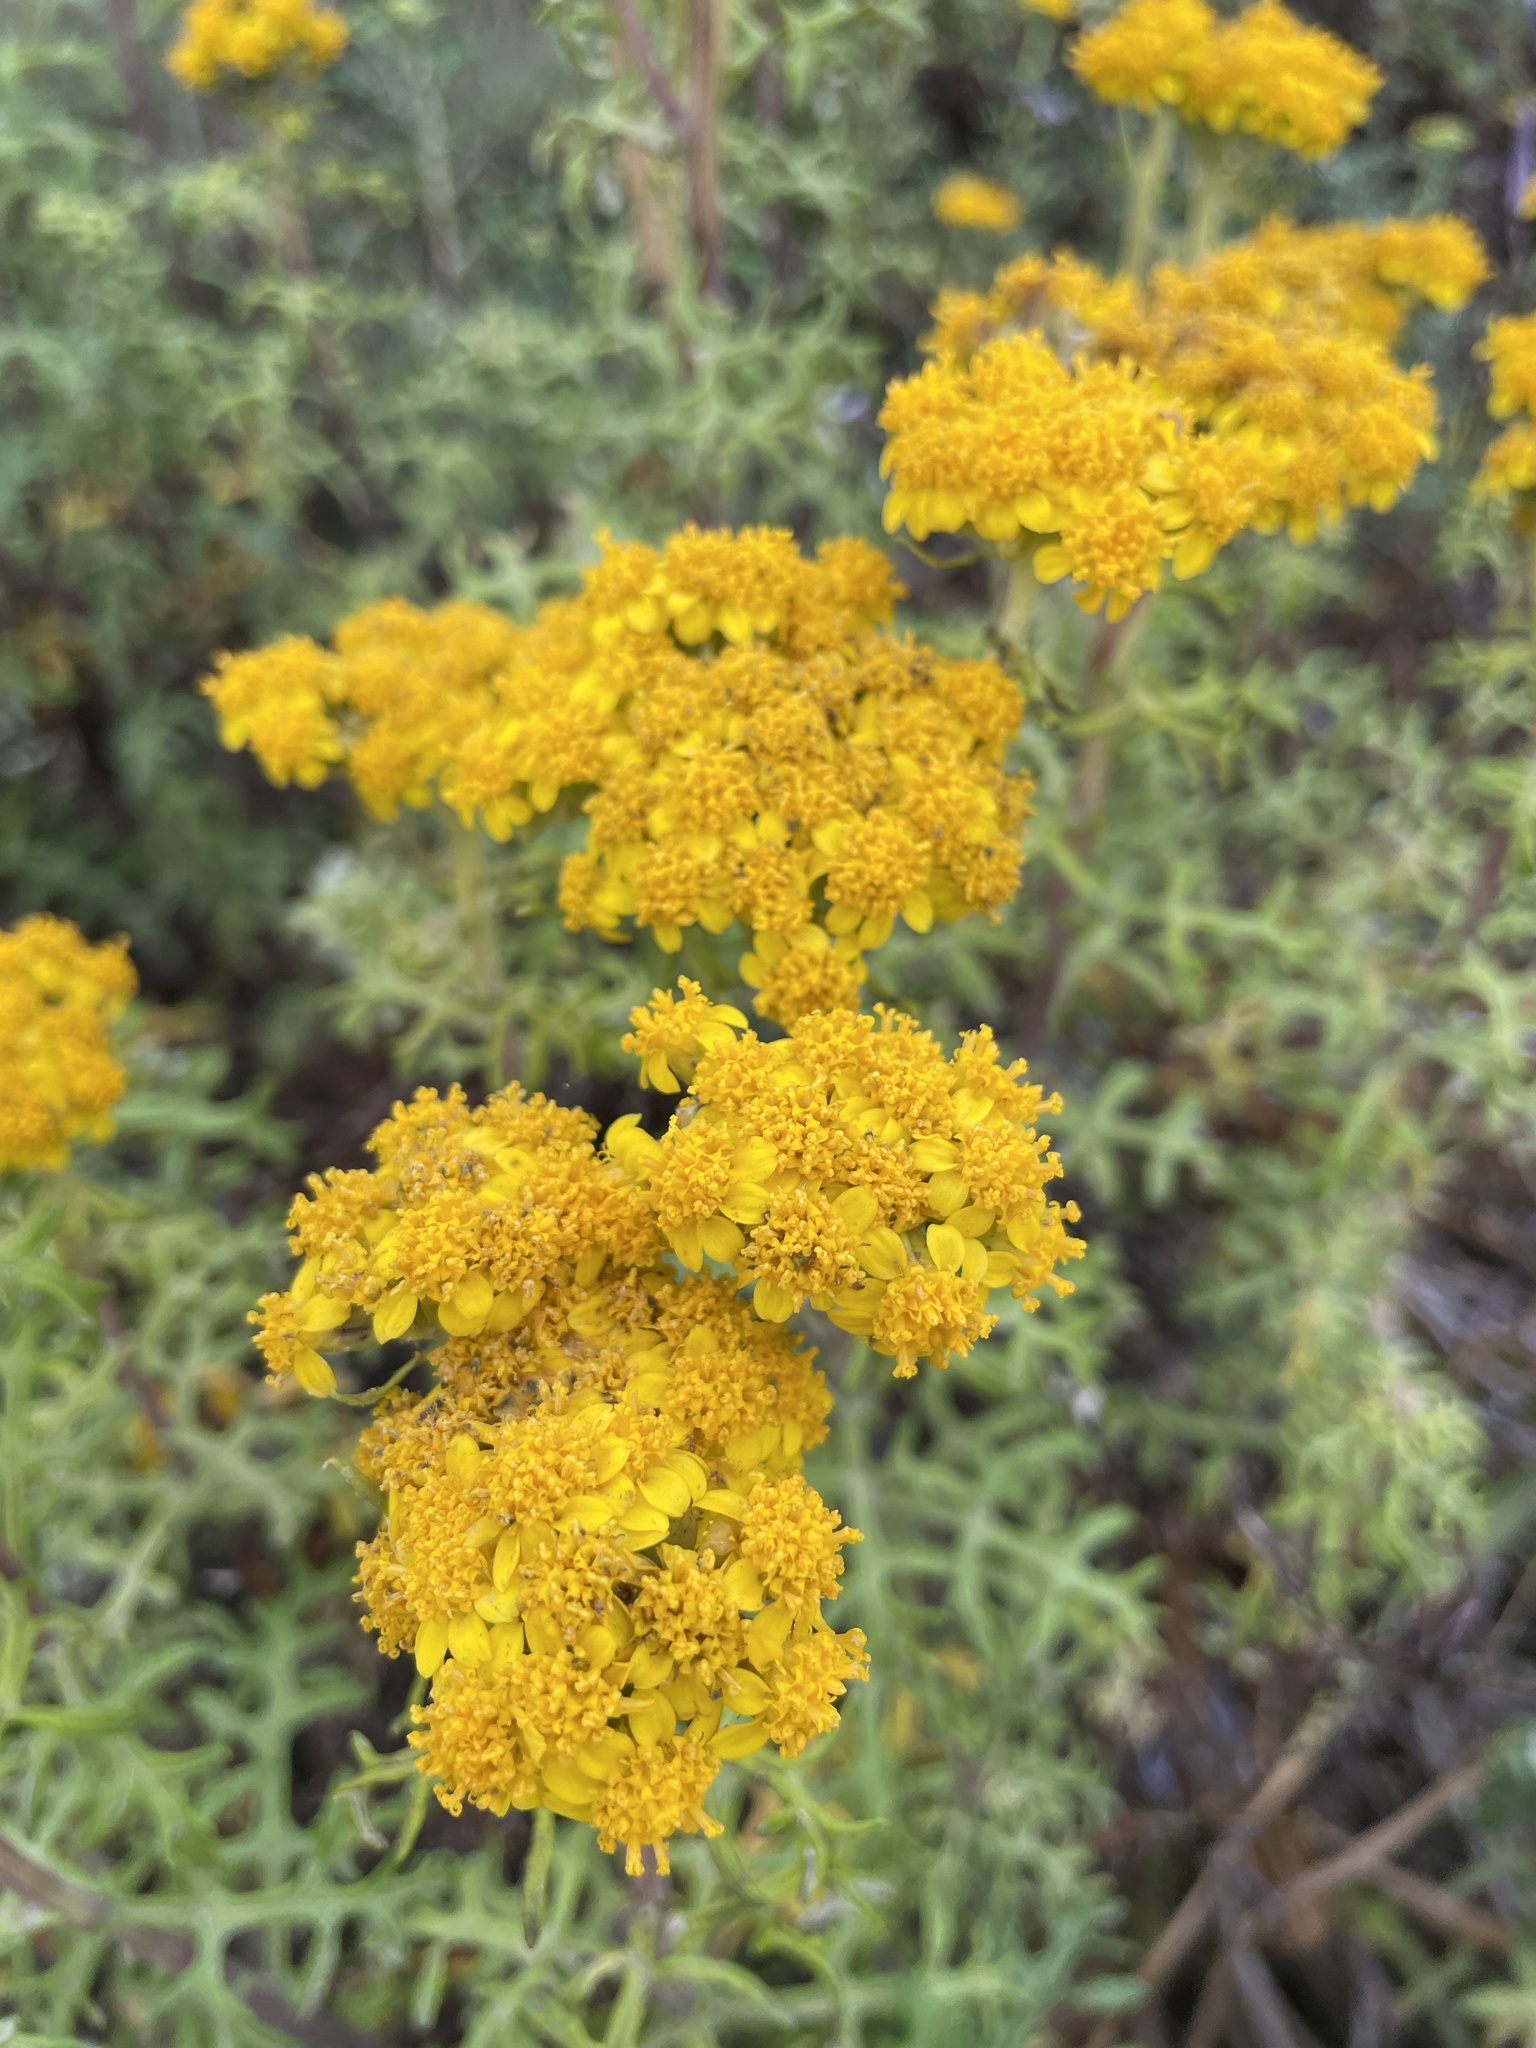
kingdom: Plantae
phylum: Tracheophyta
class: Magnoliopsida
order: Asterales
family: Asteraceae
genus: Eriophyllum
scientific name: Eriophyllum staechadifolium
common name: Lizardtail
